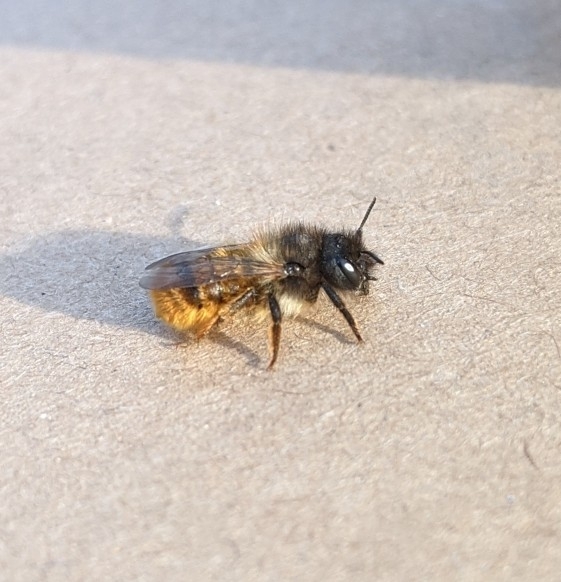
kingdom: Animalia
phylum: Arthropoda
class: Insecta
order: Hymenoptera
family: Megachilidae
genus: Osmia
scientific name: Osmia bicornis
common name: Red mason bee
